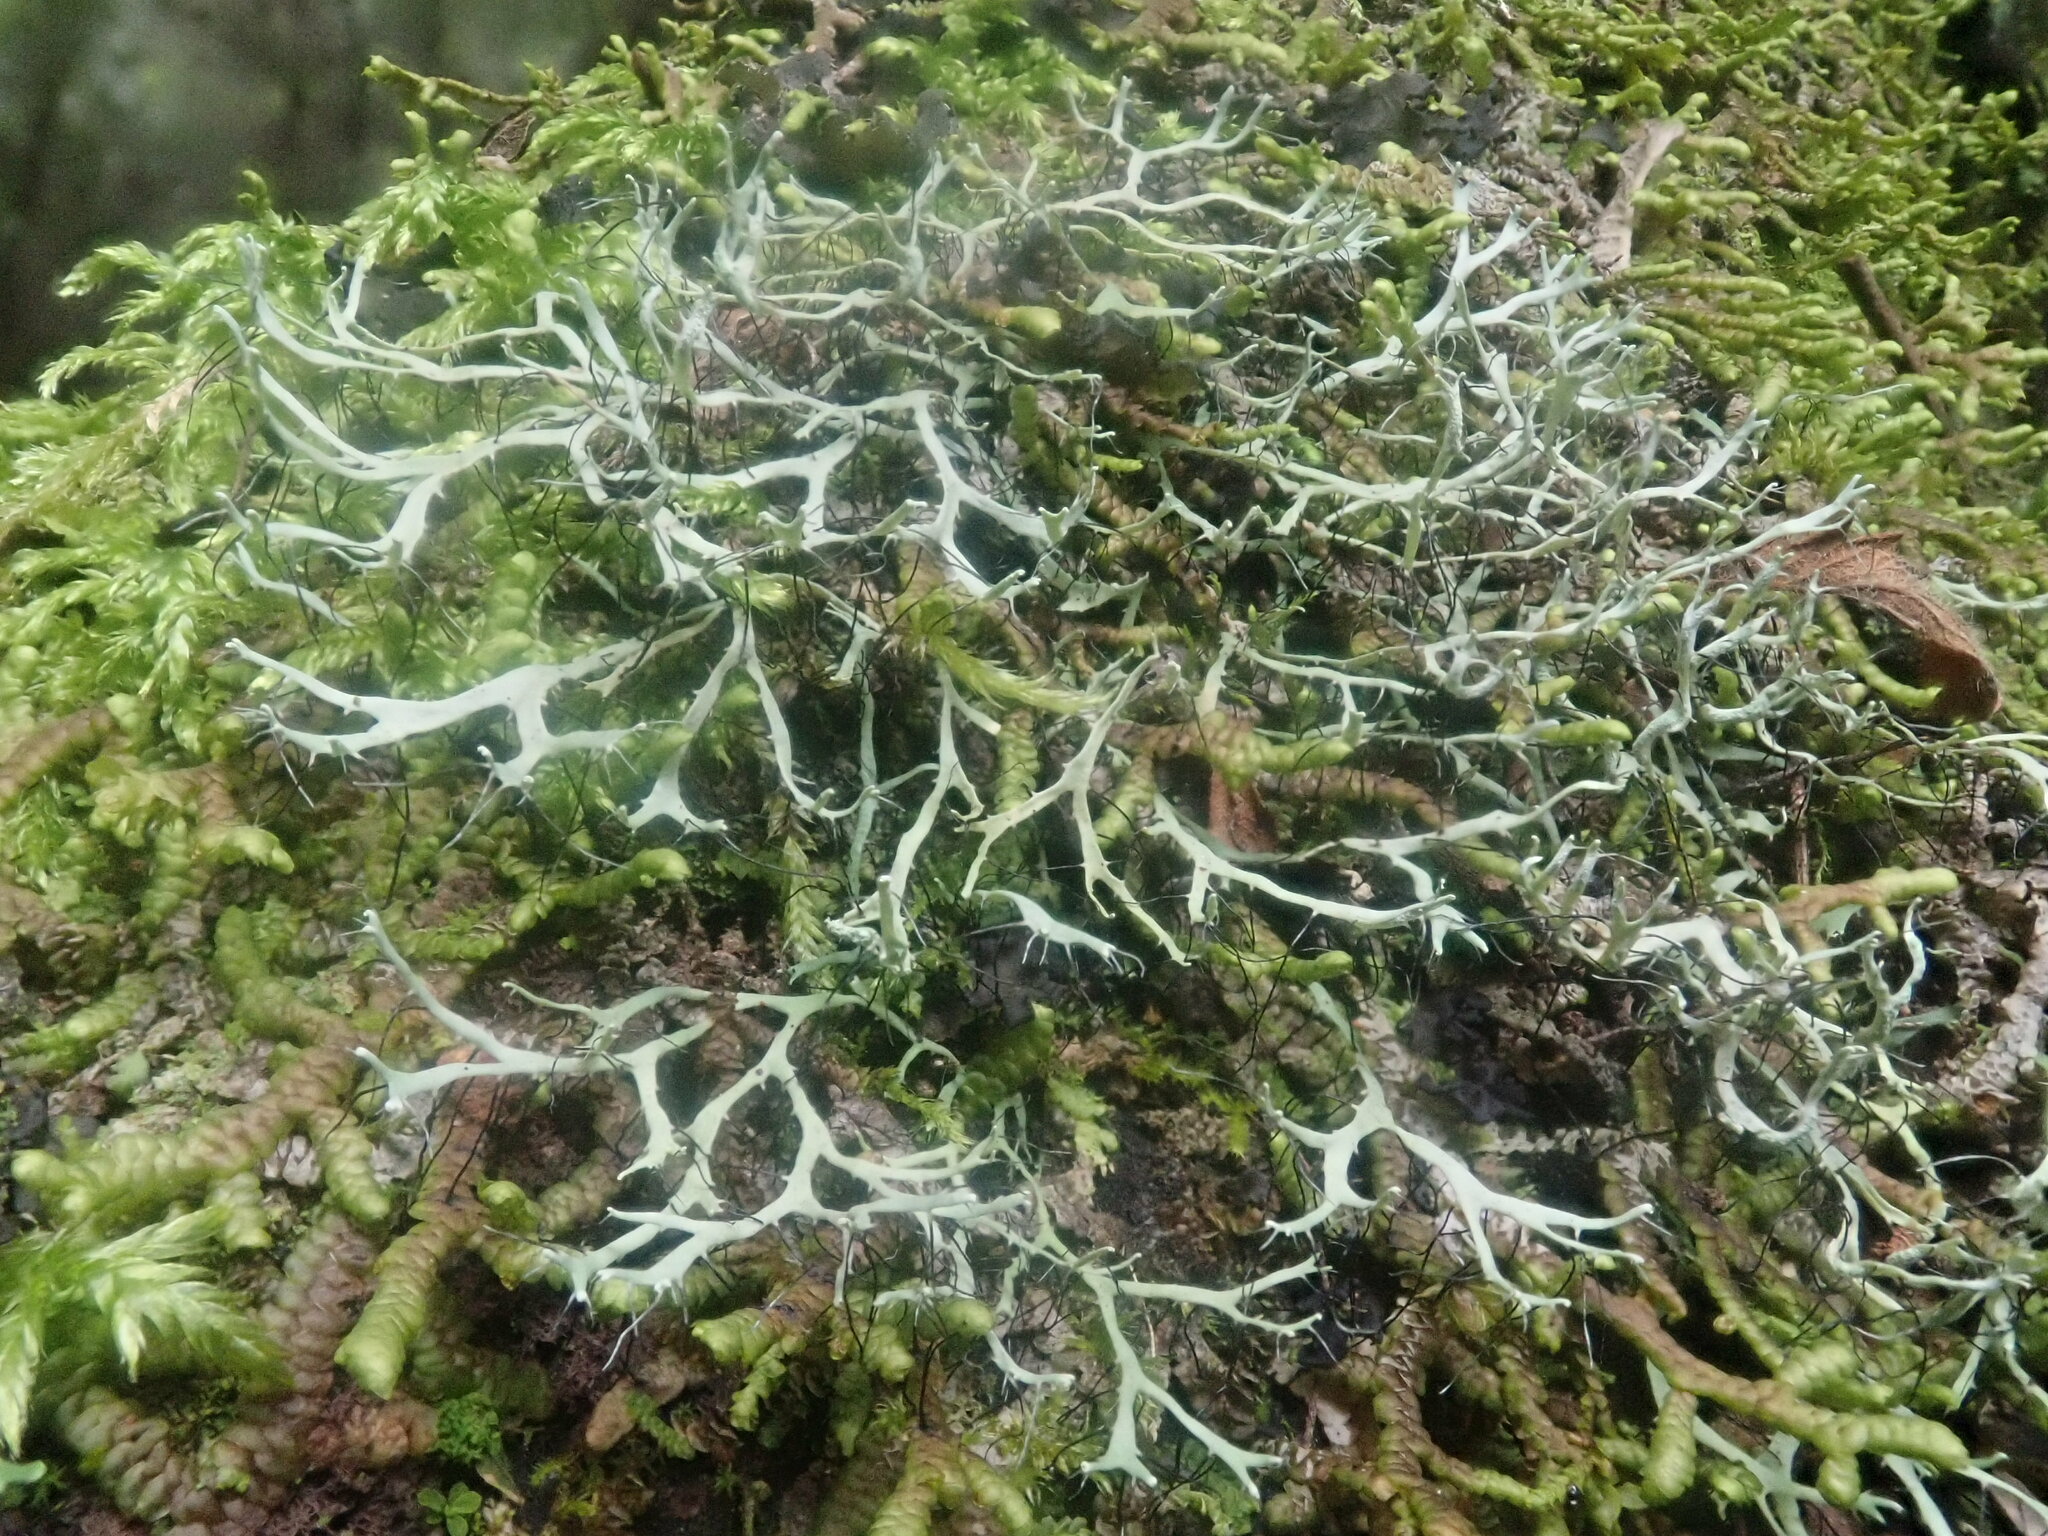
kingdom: Fungi
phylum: Ascomycota
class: Lecanoromycetes
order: Caliciales
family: Physciaceae
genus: Leucodermia
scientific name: Leucodermia leucomelos
